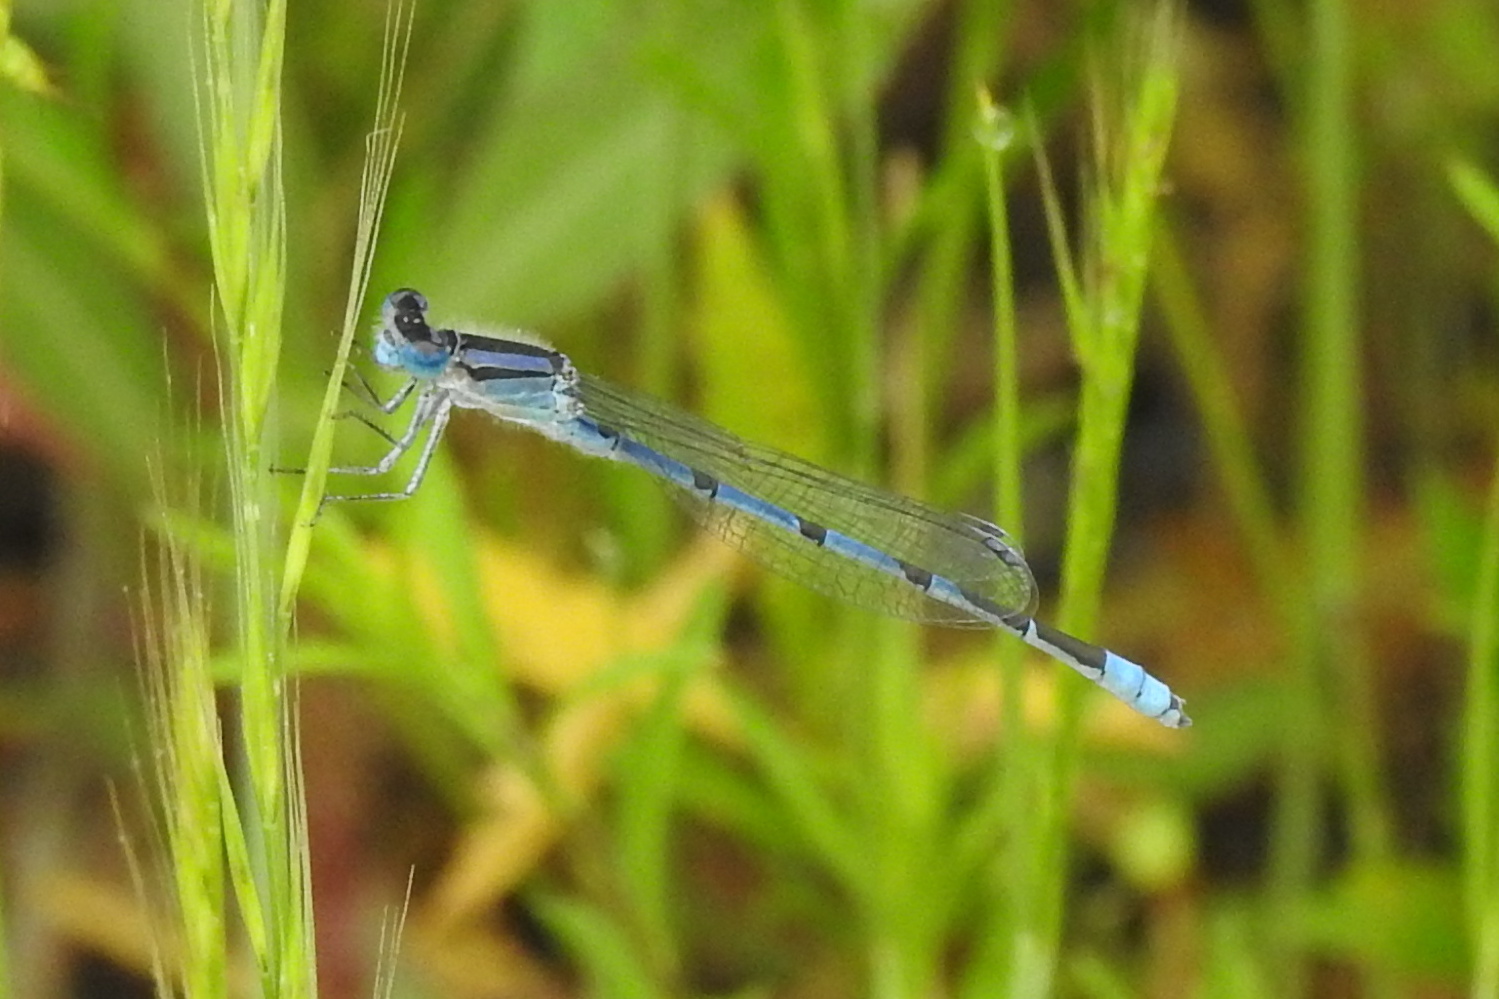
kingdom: Animalia
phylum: Arthropoda
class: Insecta
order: Odonata
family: Coenagrionidae
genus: Enallagma
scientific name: Enallagma civile
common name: Damselfly
